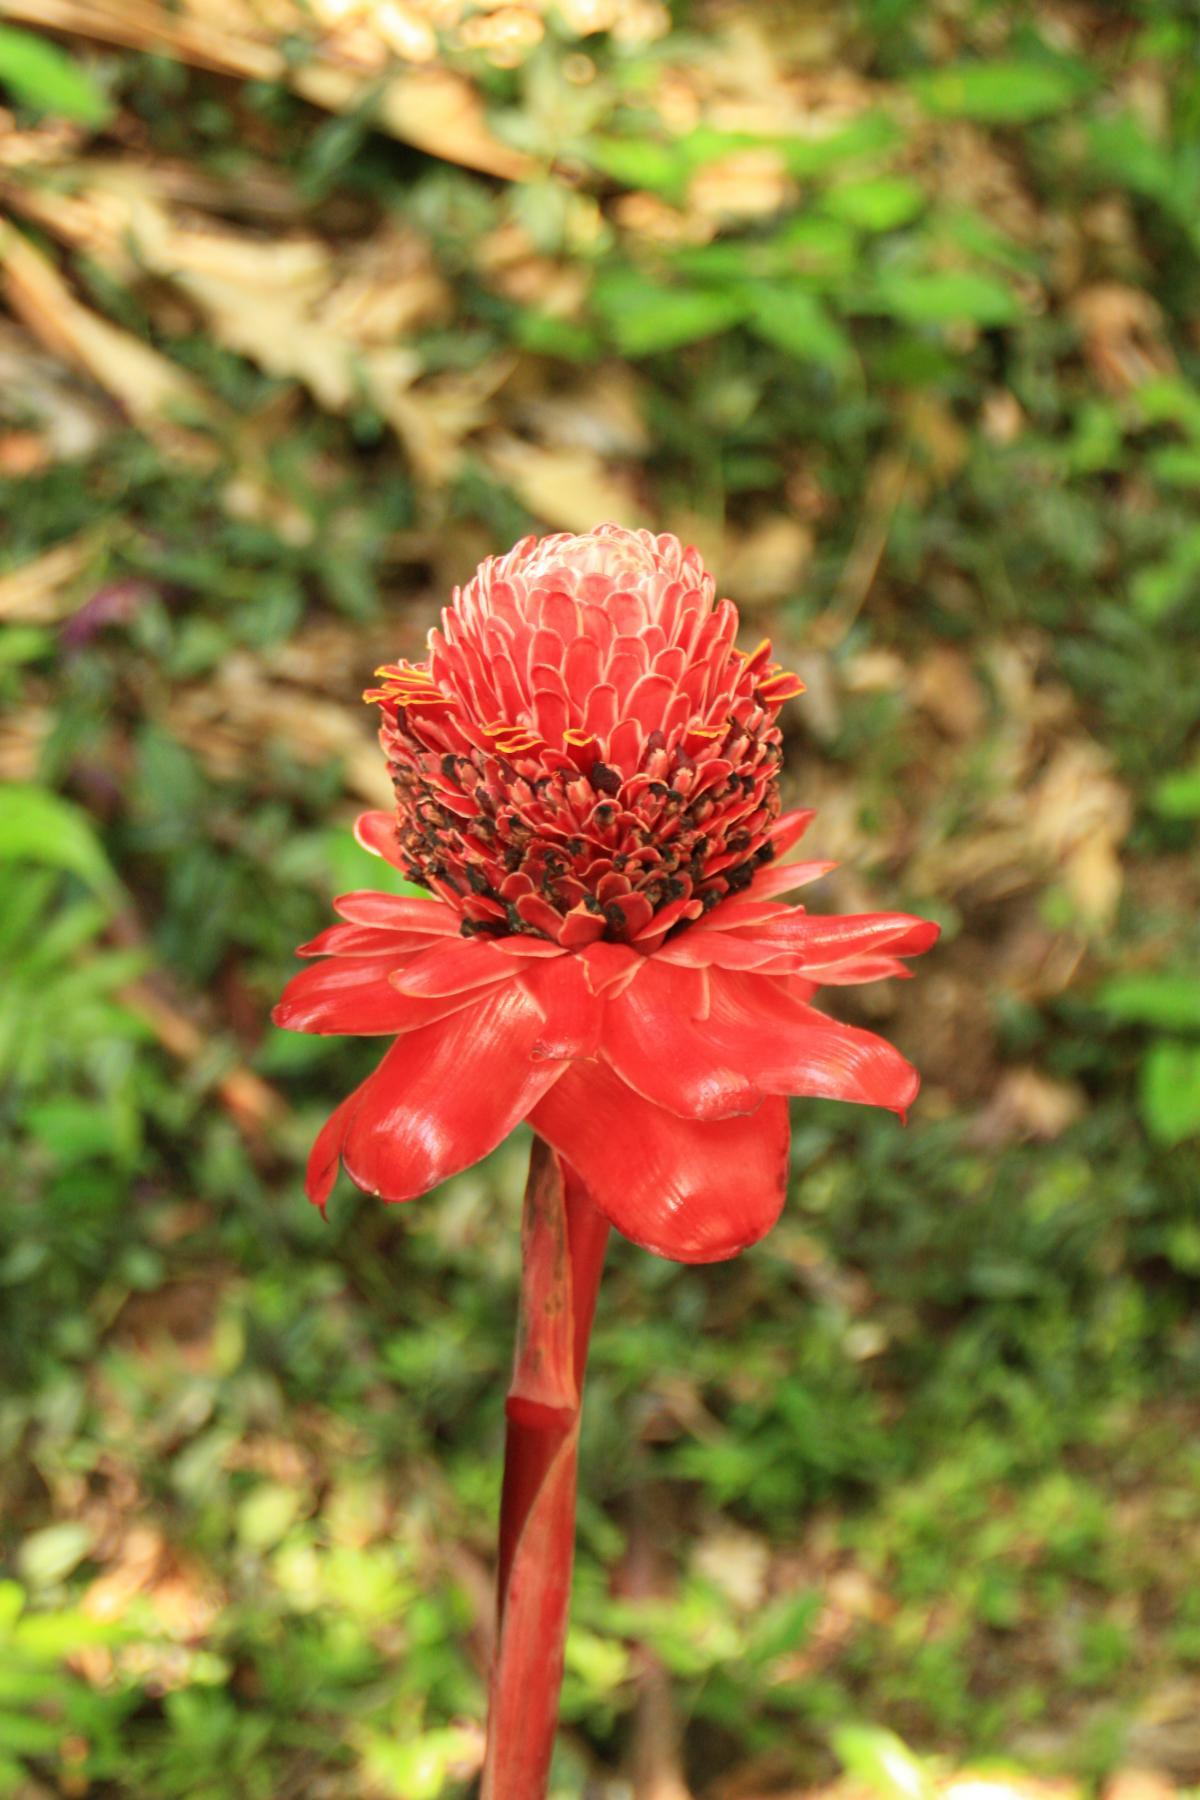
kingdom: Plantae
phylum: Tracheophyta
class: Liliopsida
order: Zingiberales
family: Zingiberaceae
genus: Etlingera
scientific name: Etlingera elatior
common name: Philippine waxflower
